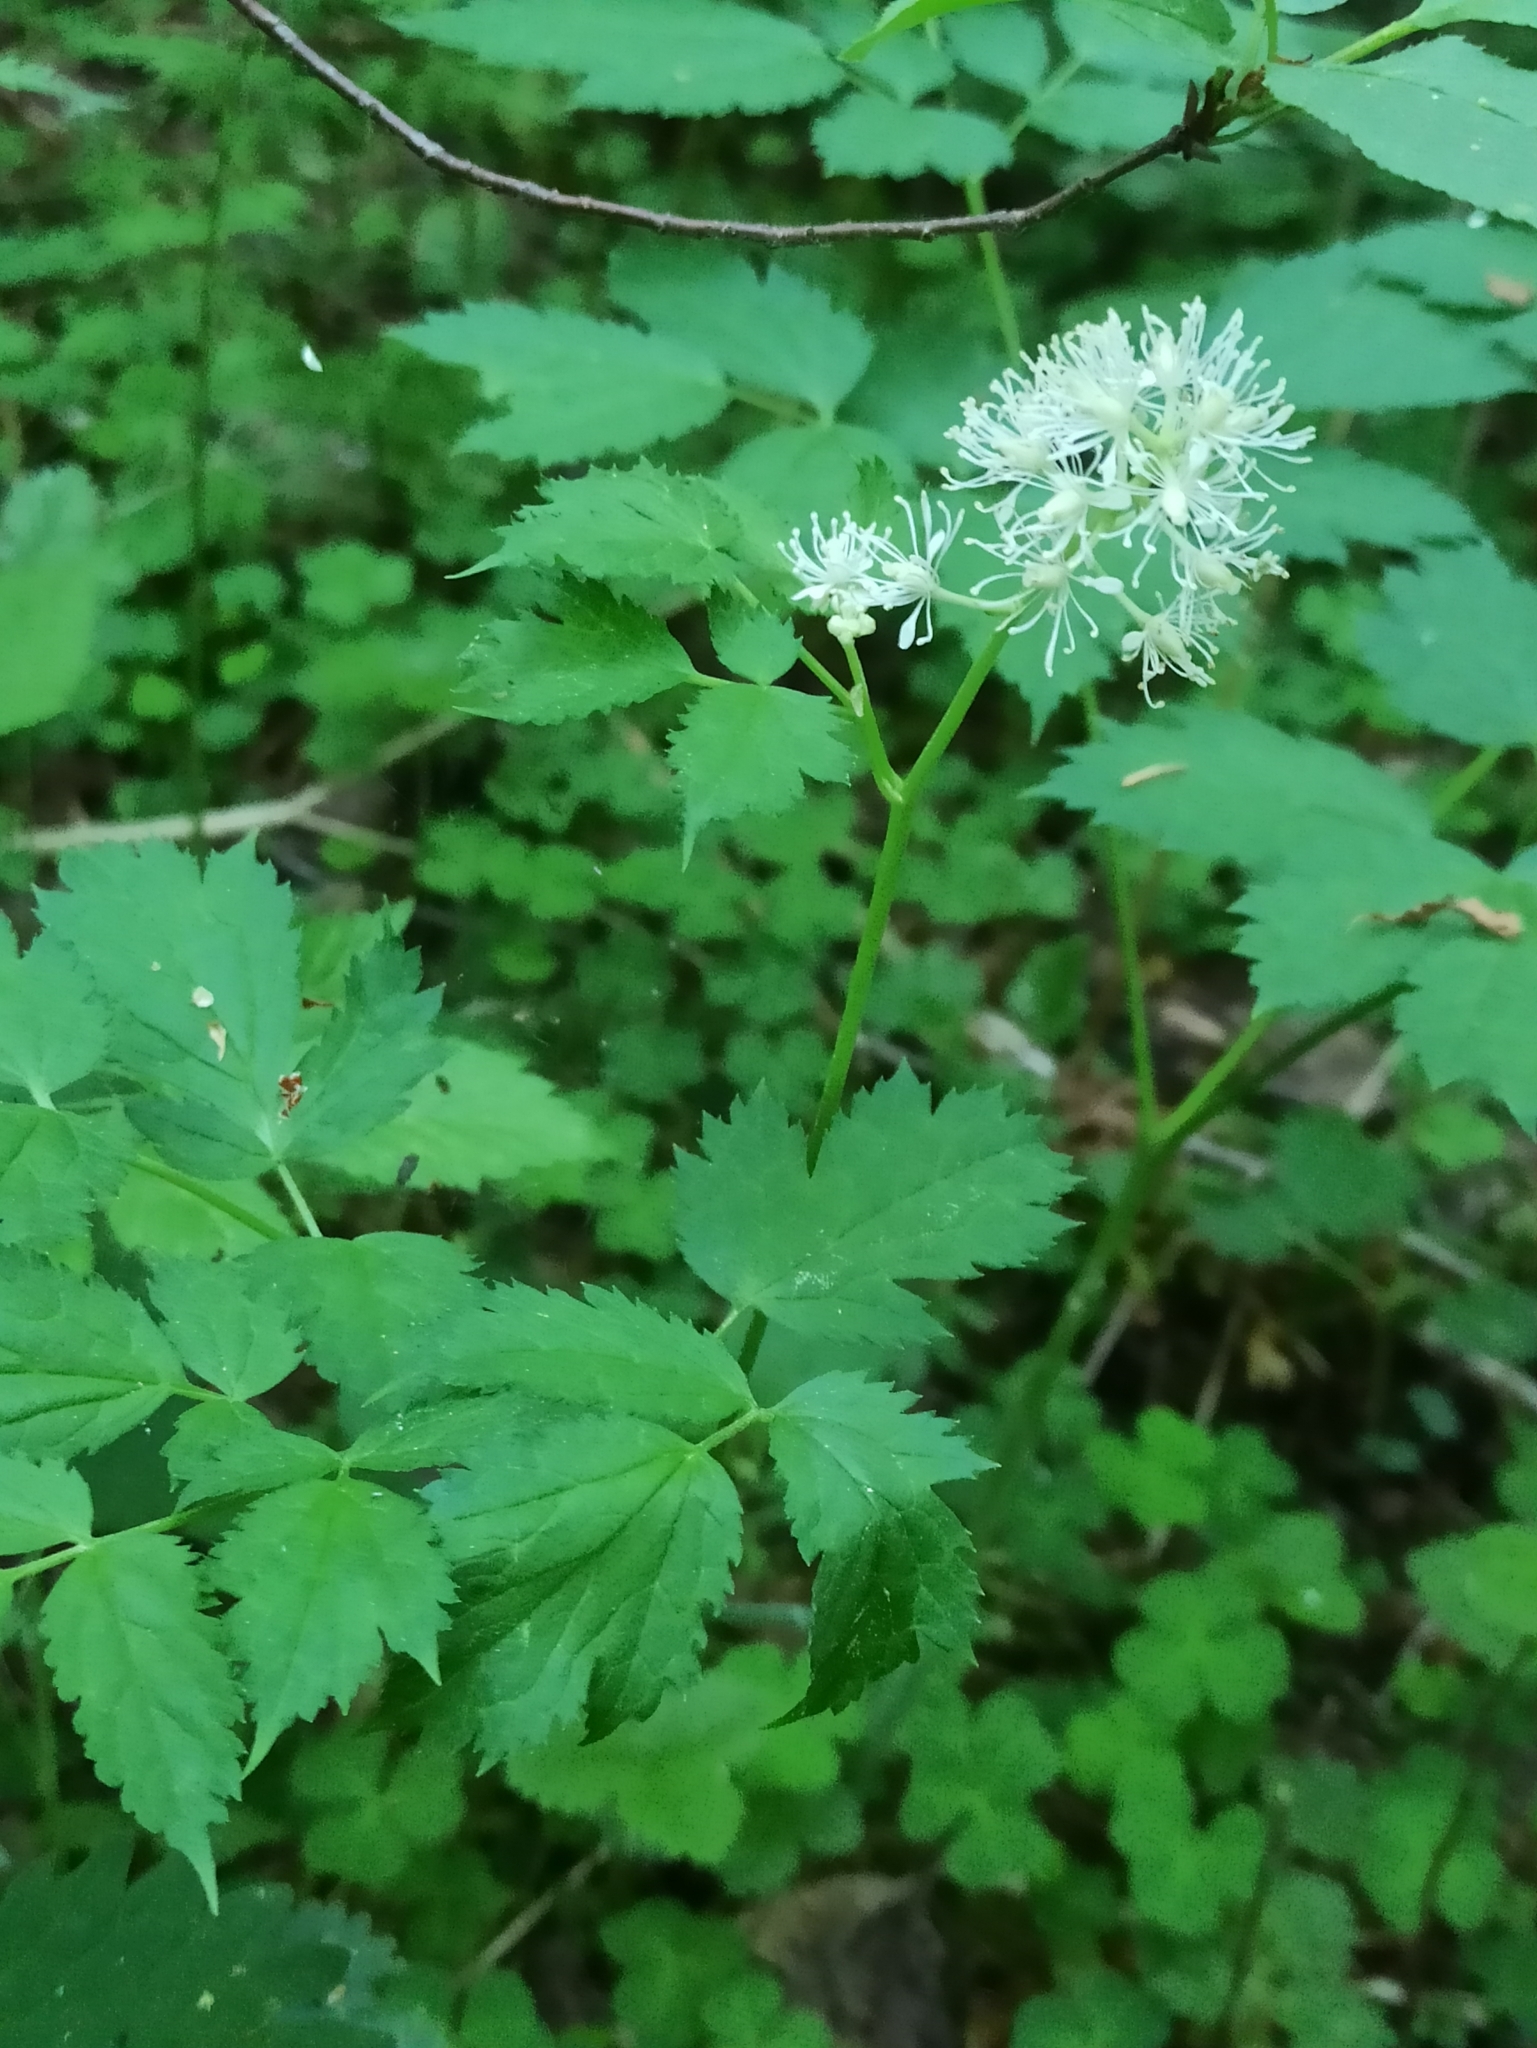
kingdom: Plantae
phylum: Tracheophyta
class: Magnoliopsida
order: Ranunculales
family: Ranunculaceae
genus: Actaea
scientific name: Actaea spicata
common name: Baneberry
